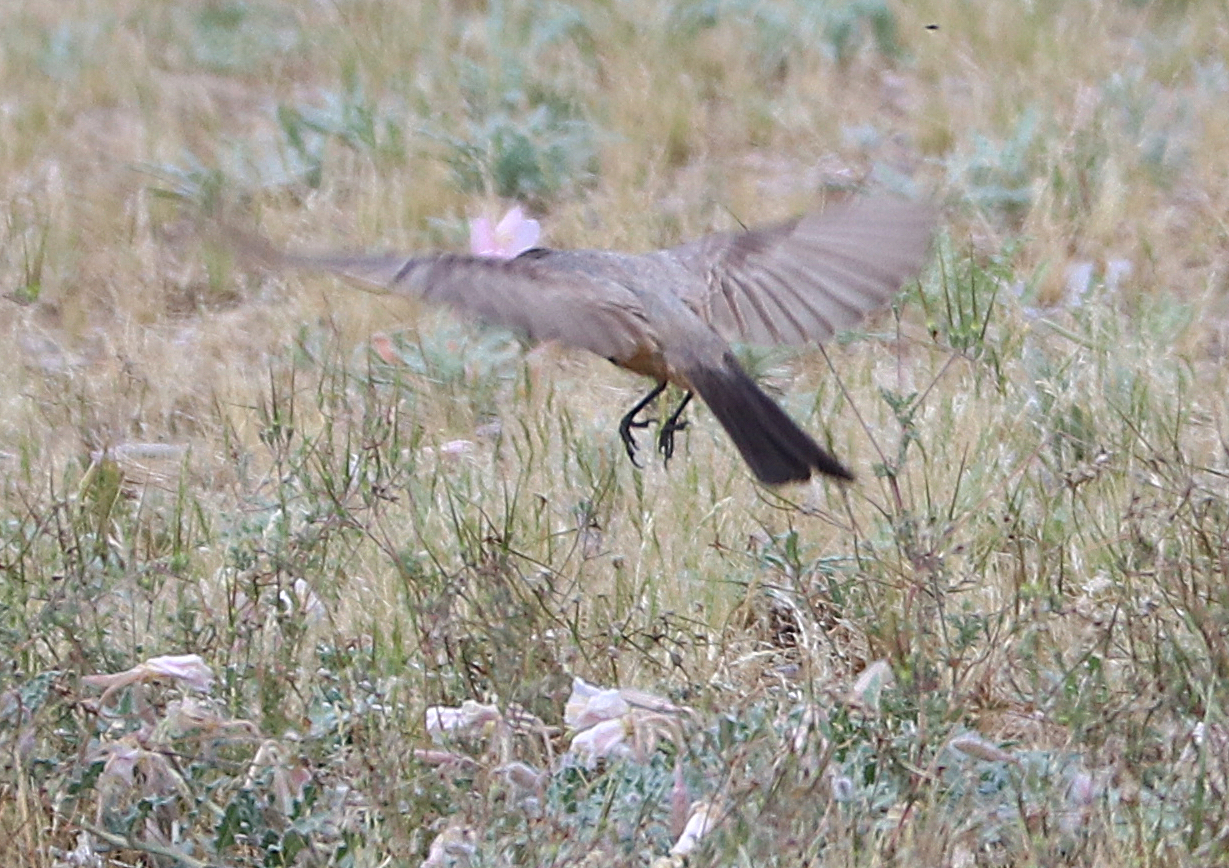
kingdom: Animalia
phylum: Chordata
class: Aves
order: Passeriformes
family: Tyrannidae
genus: Sayornis
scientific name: Sayornis saya
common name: Say's phoebe
